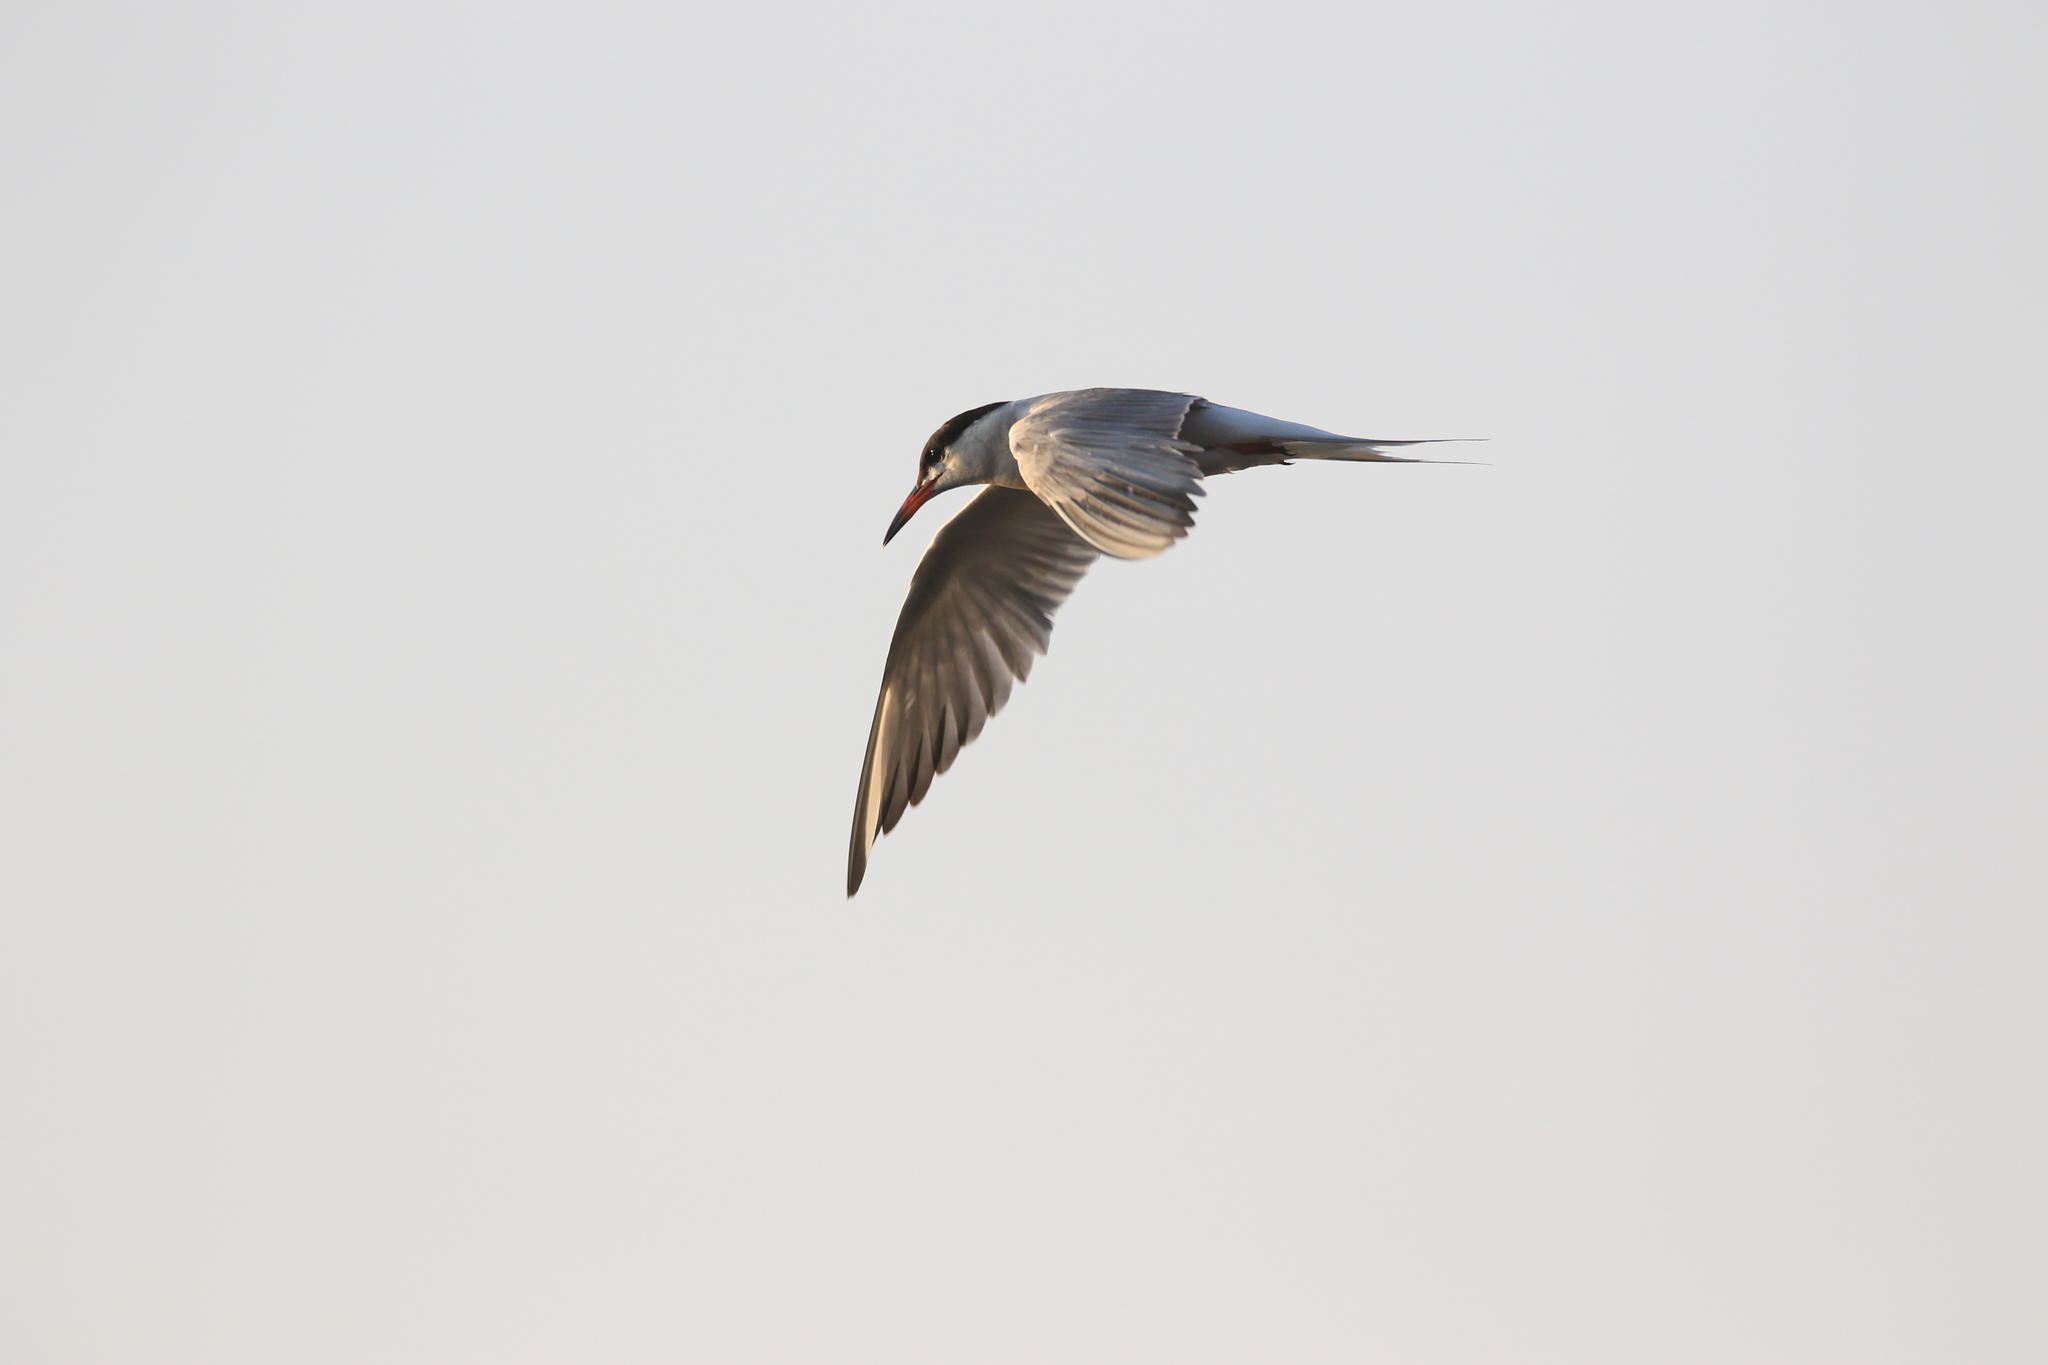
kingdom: Animalia
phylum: Chordata
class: Aves
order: Charadriiformes
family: Laridae
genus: Sterna
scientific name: Sterna hirundo
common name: Common tern
